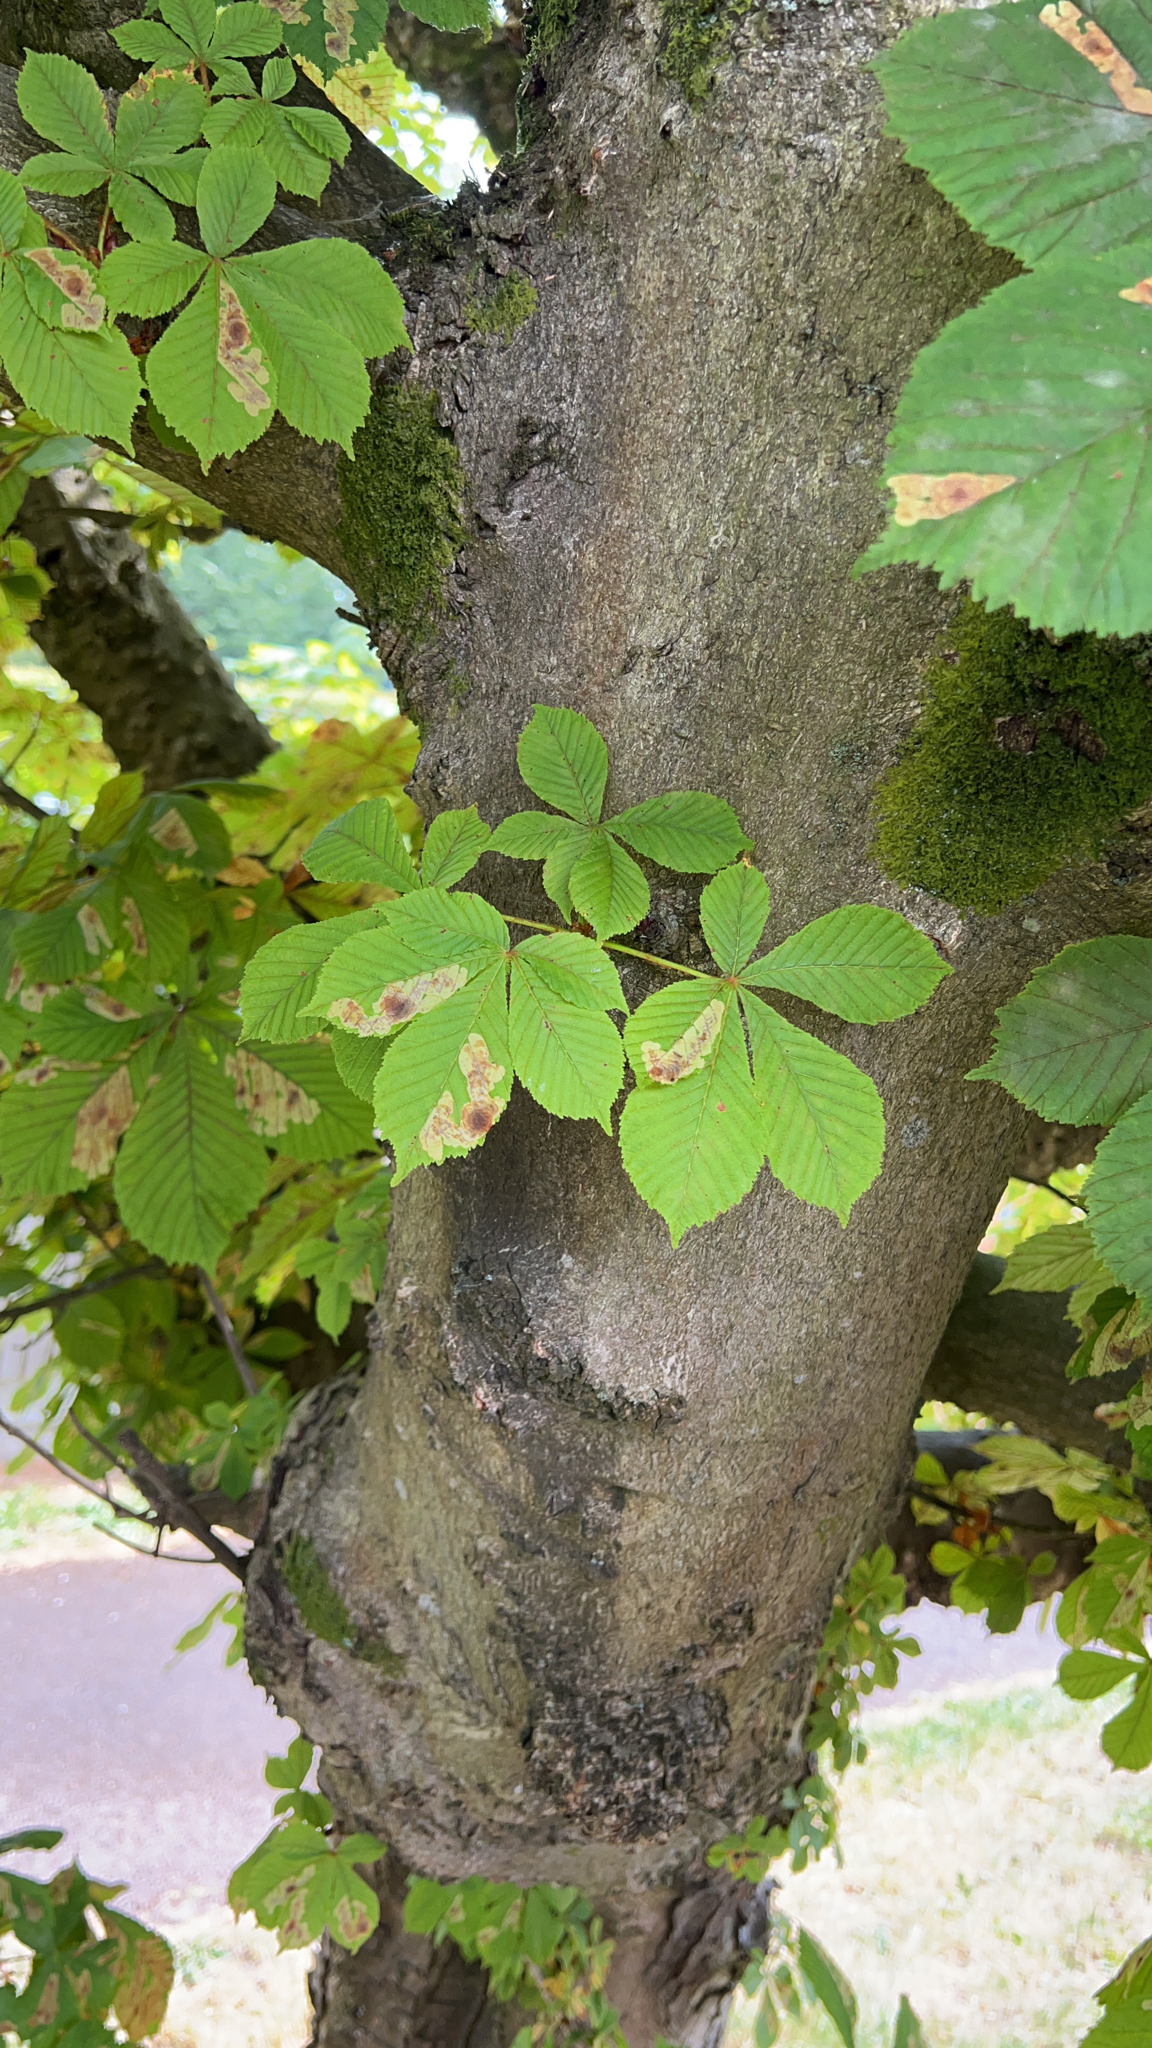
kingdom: Plantae
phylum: Tracheophyta
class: Magnoliopsida
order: Sapindales
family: Sapindaceae
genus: Aesculus
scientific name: Aesculus hippocastanum
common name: Horse-chestnut
